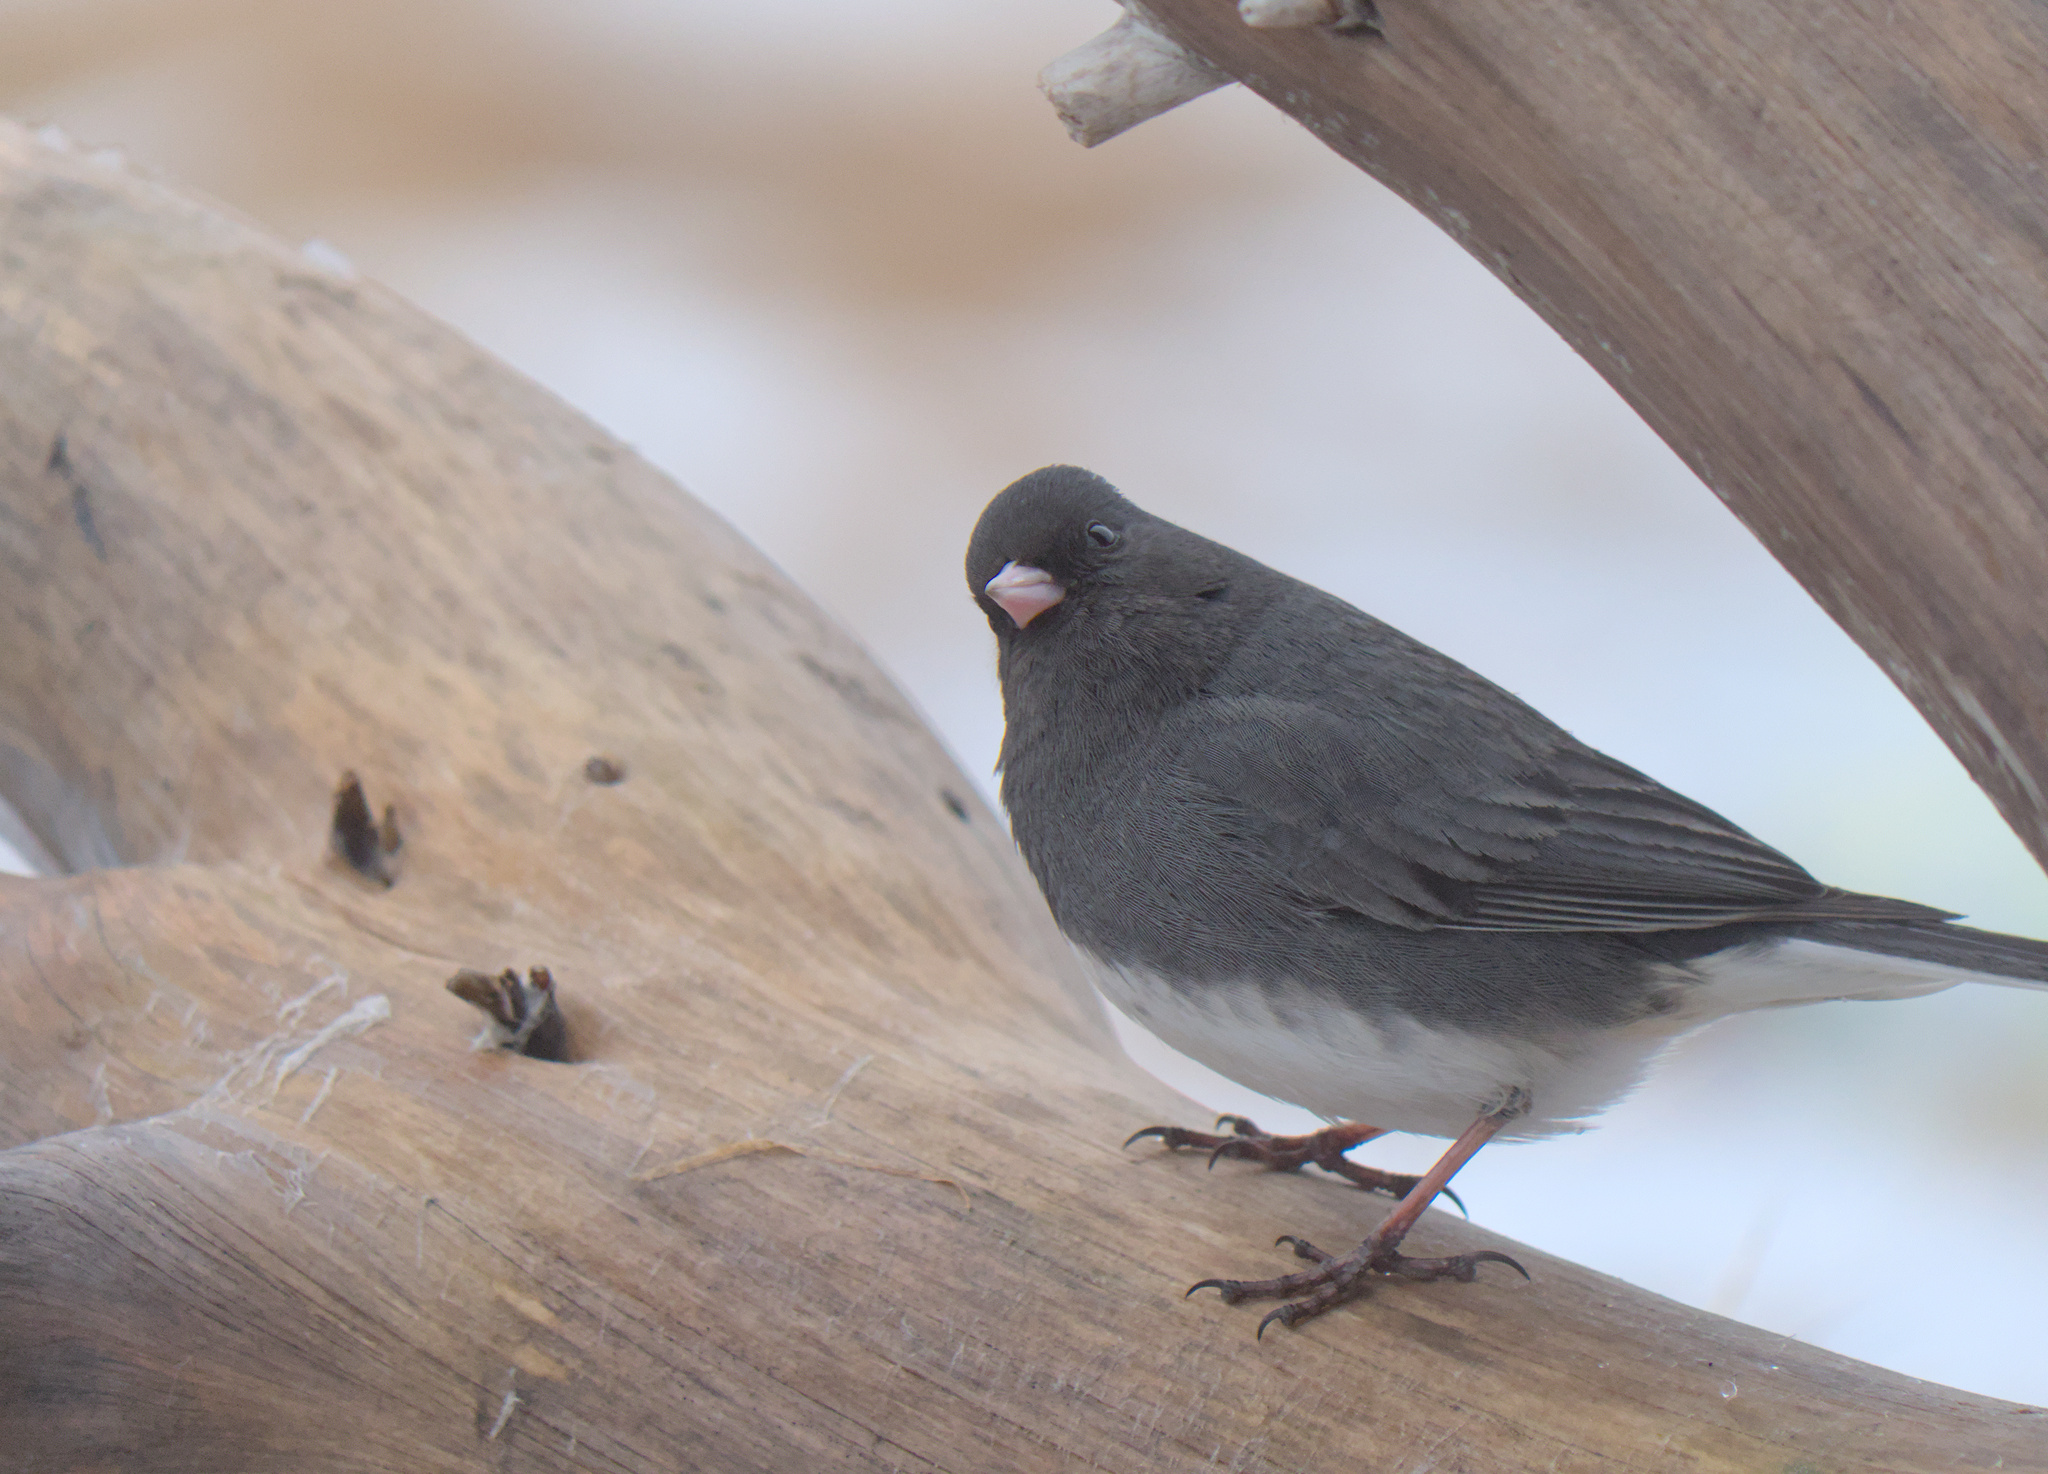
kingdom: Animalia
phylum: Chordata
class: Aves
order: Passeriformes
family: Passerellidae
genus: Junco
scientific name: Junco hyemalis
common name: Dark-eyed junco
